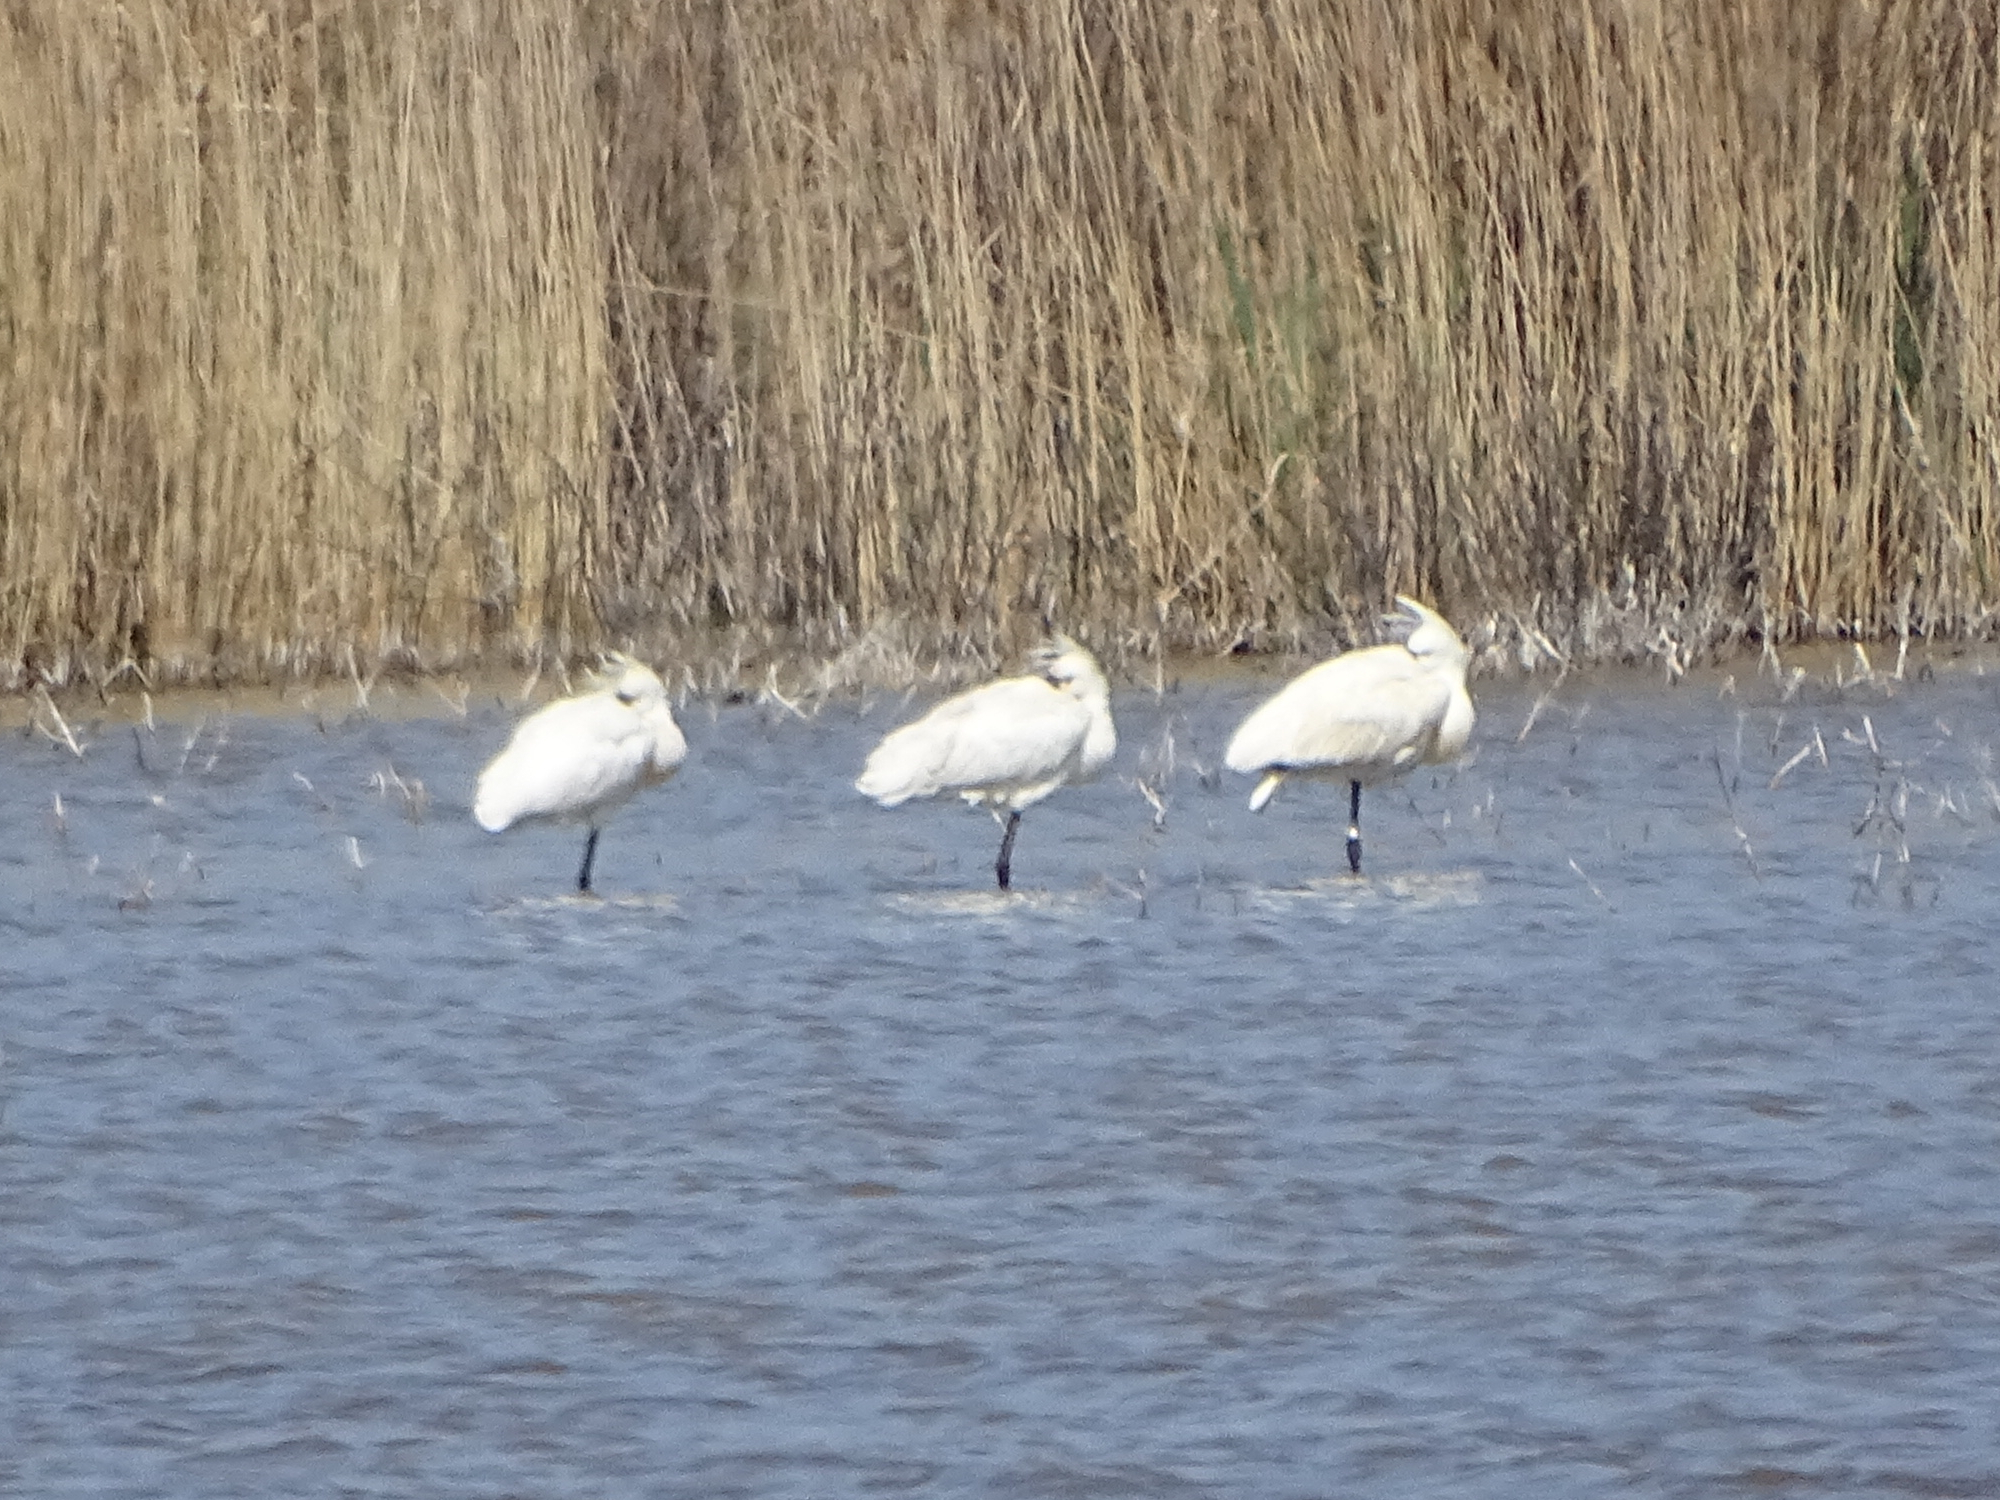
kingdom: Animalia
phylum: Chordata
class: Aves
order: Pelecaniformes
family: Threskiornithidae
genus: Platalea
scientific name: Platalea leucorodia
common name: Eurasian spoonbill
